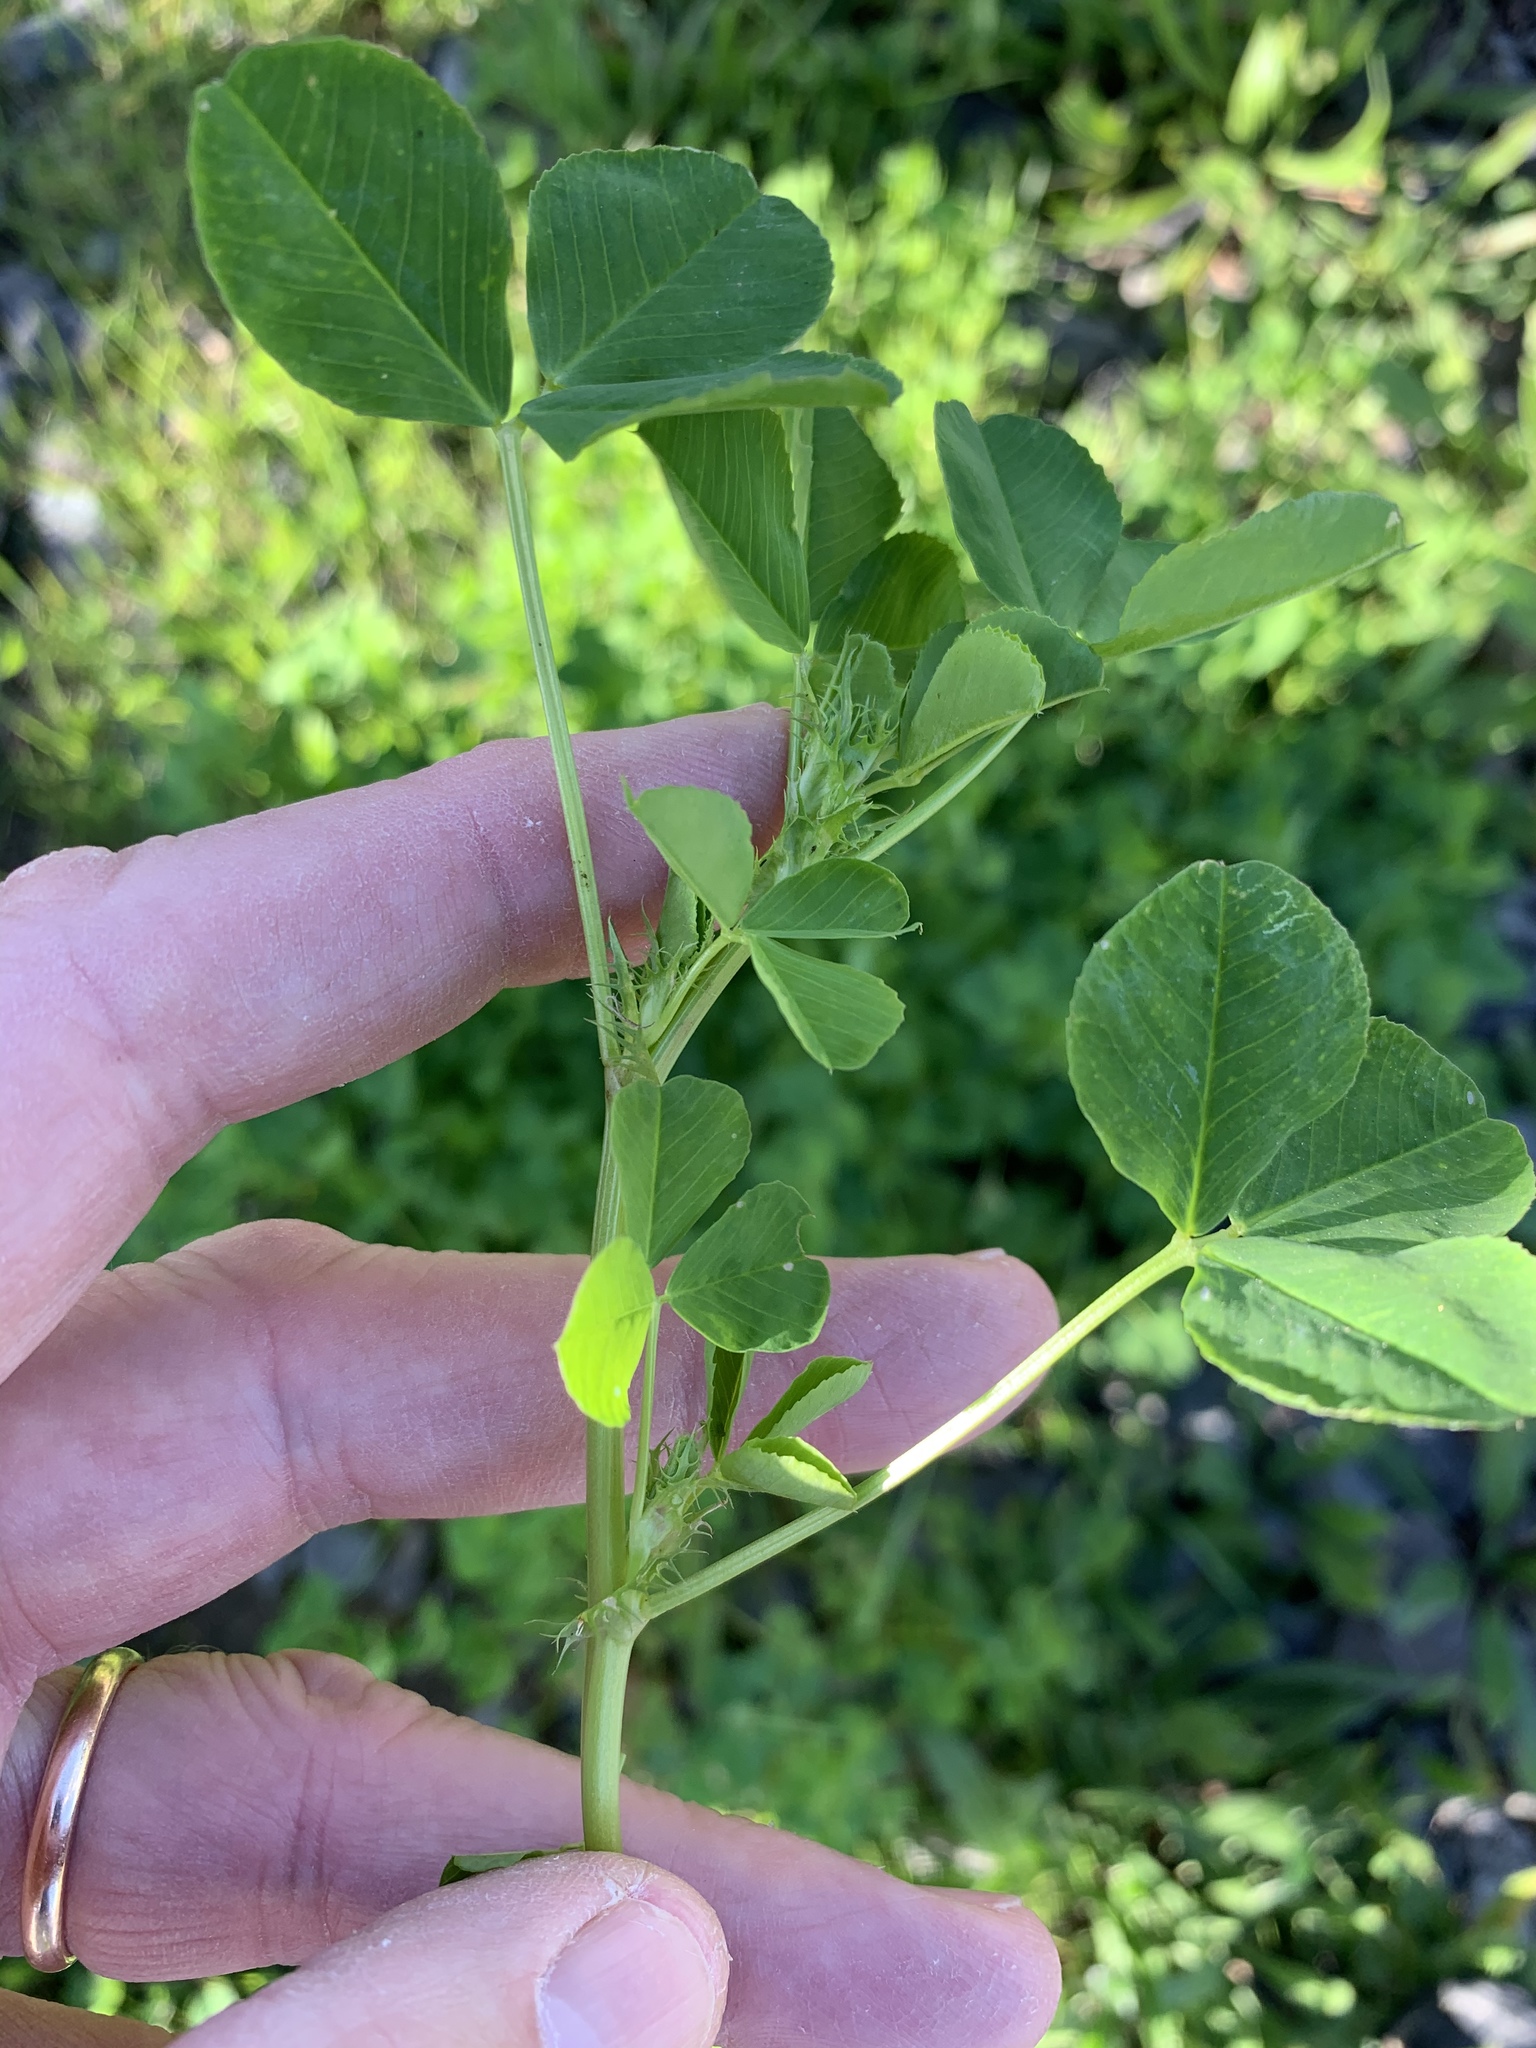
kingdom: Plantae
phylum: Tracheophyta
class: Magnoliopsida
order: Fabales
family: Fabaceae
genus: Medicago
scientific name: Medicago polymorpha
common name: Burclover
